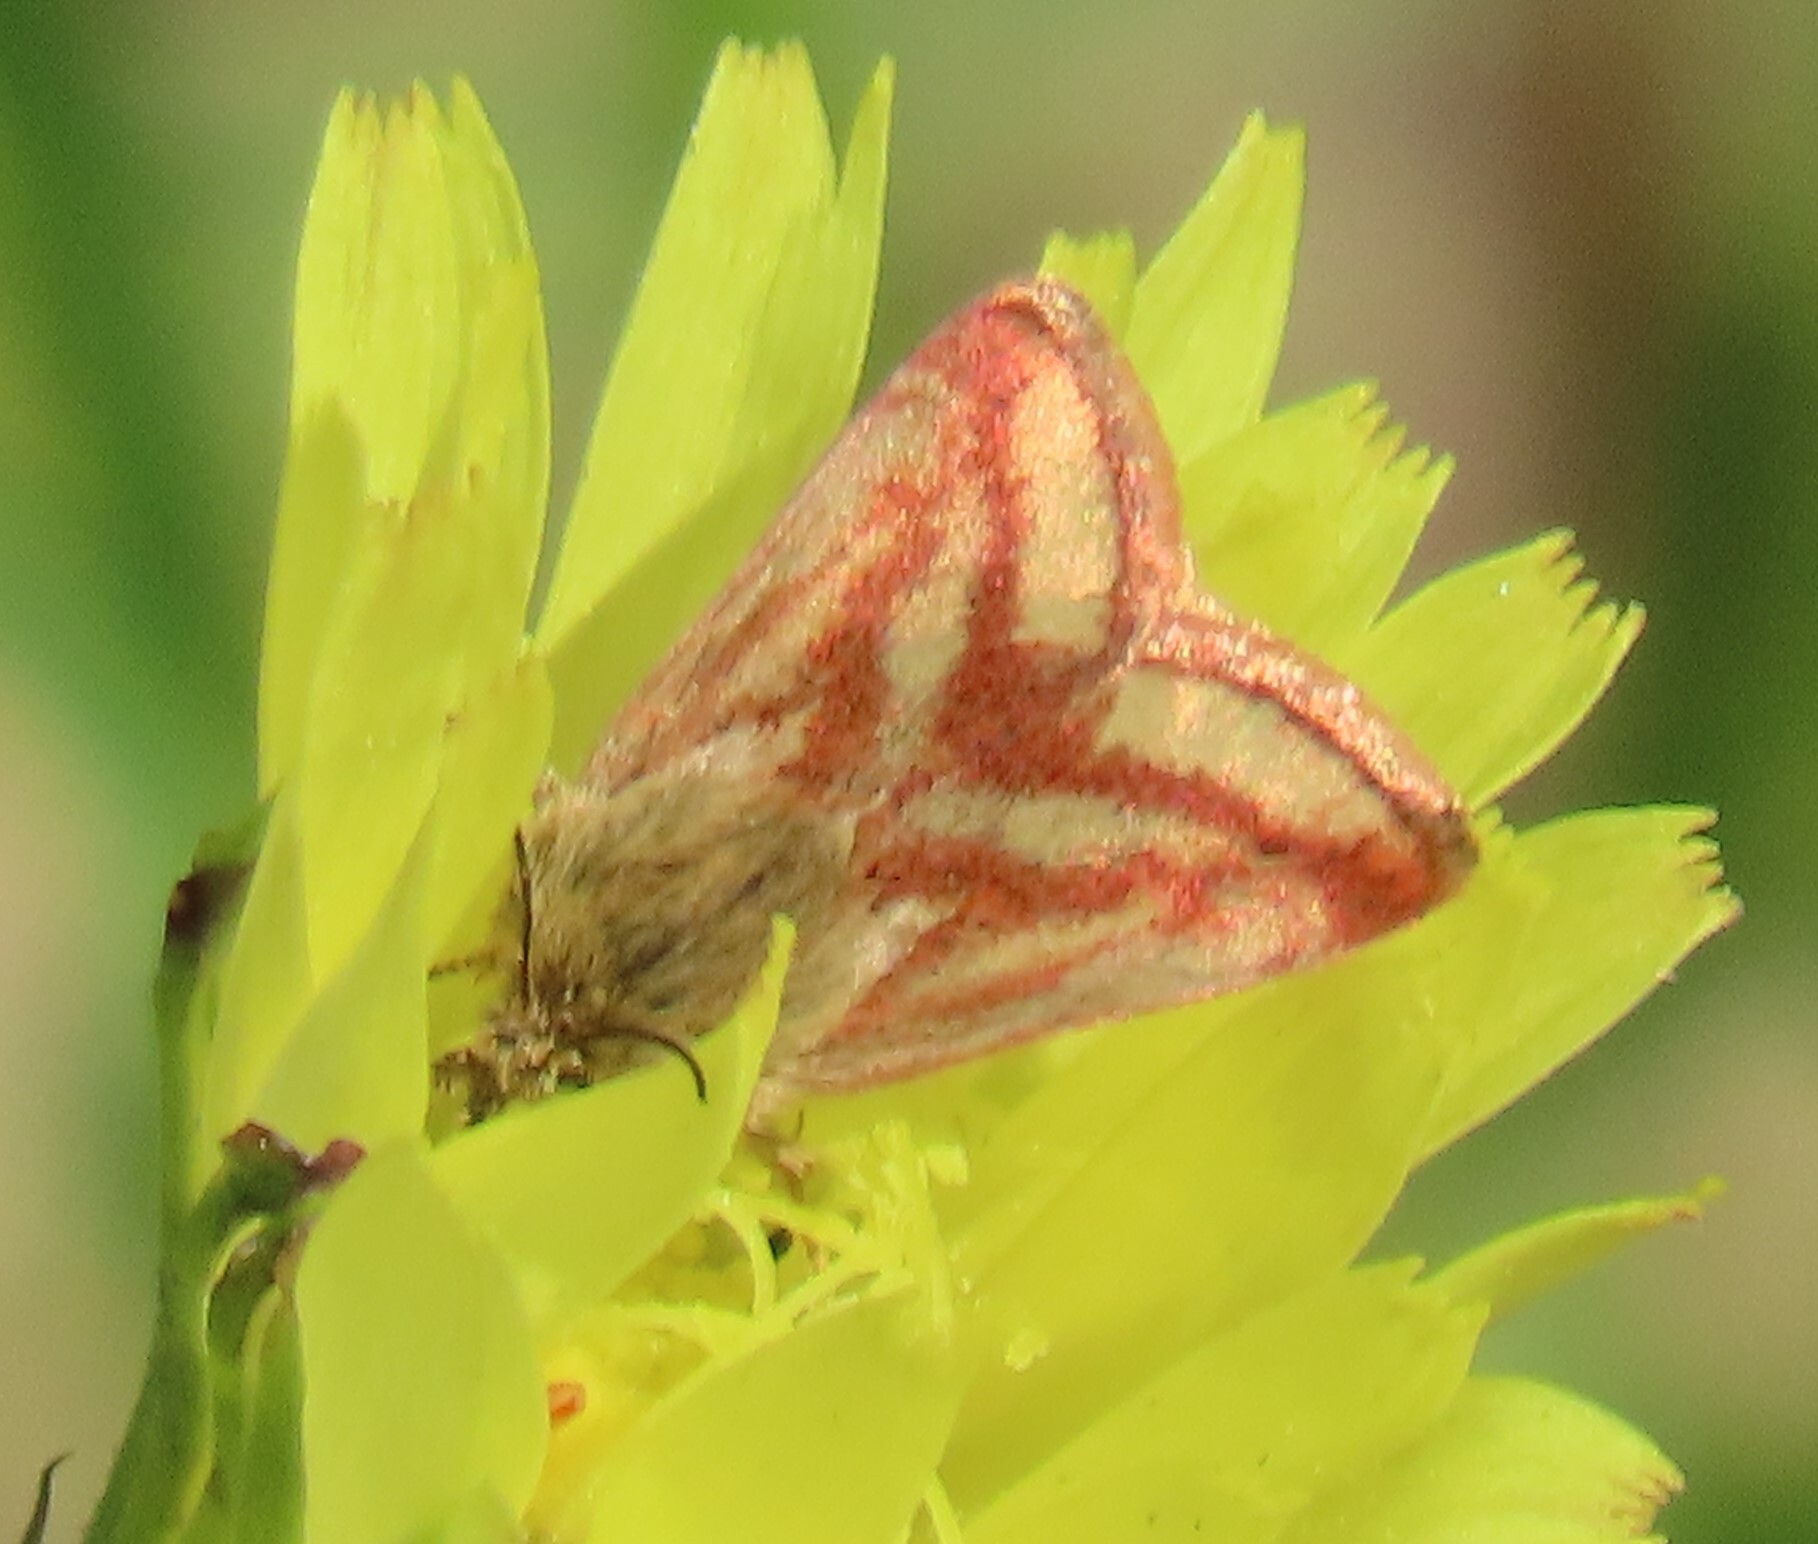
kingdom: Animalia
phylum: Arthropoda
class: Insecta
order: Lepidoptera
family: Noctuidae
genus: Schinia
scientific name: Schinia mitis
